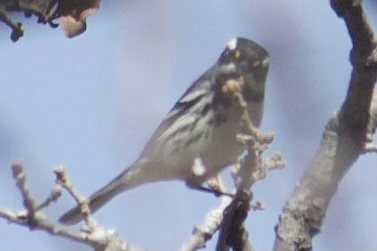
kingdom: Animalia
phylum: Chordata
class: Aves
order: Passeriformes
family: Parulidae
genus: Setophaga
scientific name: Setophaga nigrescens
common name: Black-throated gray warbler
